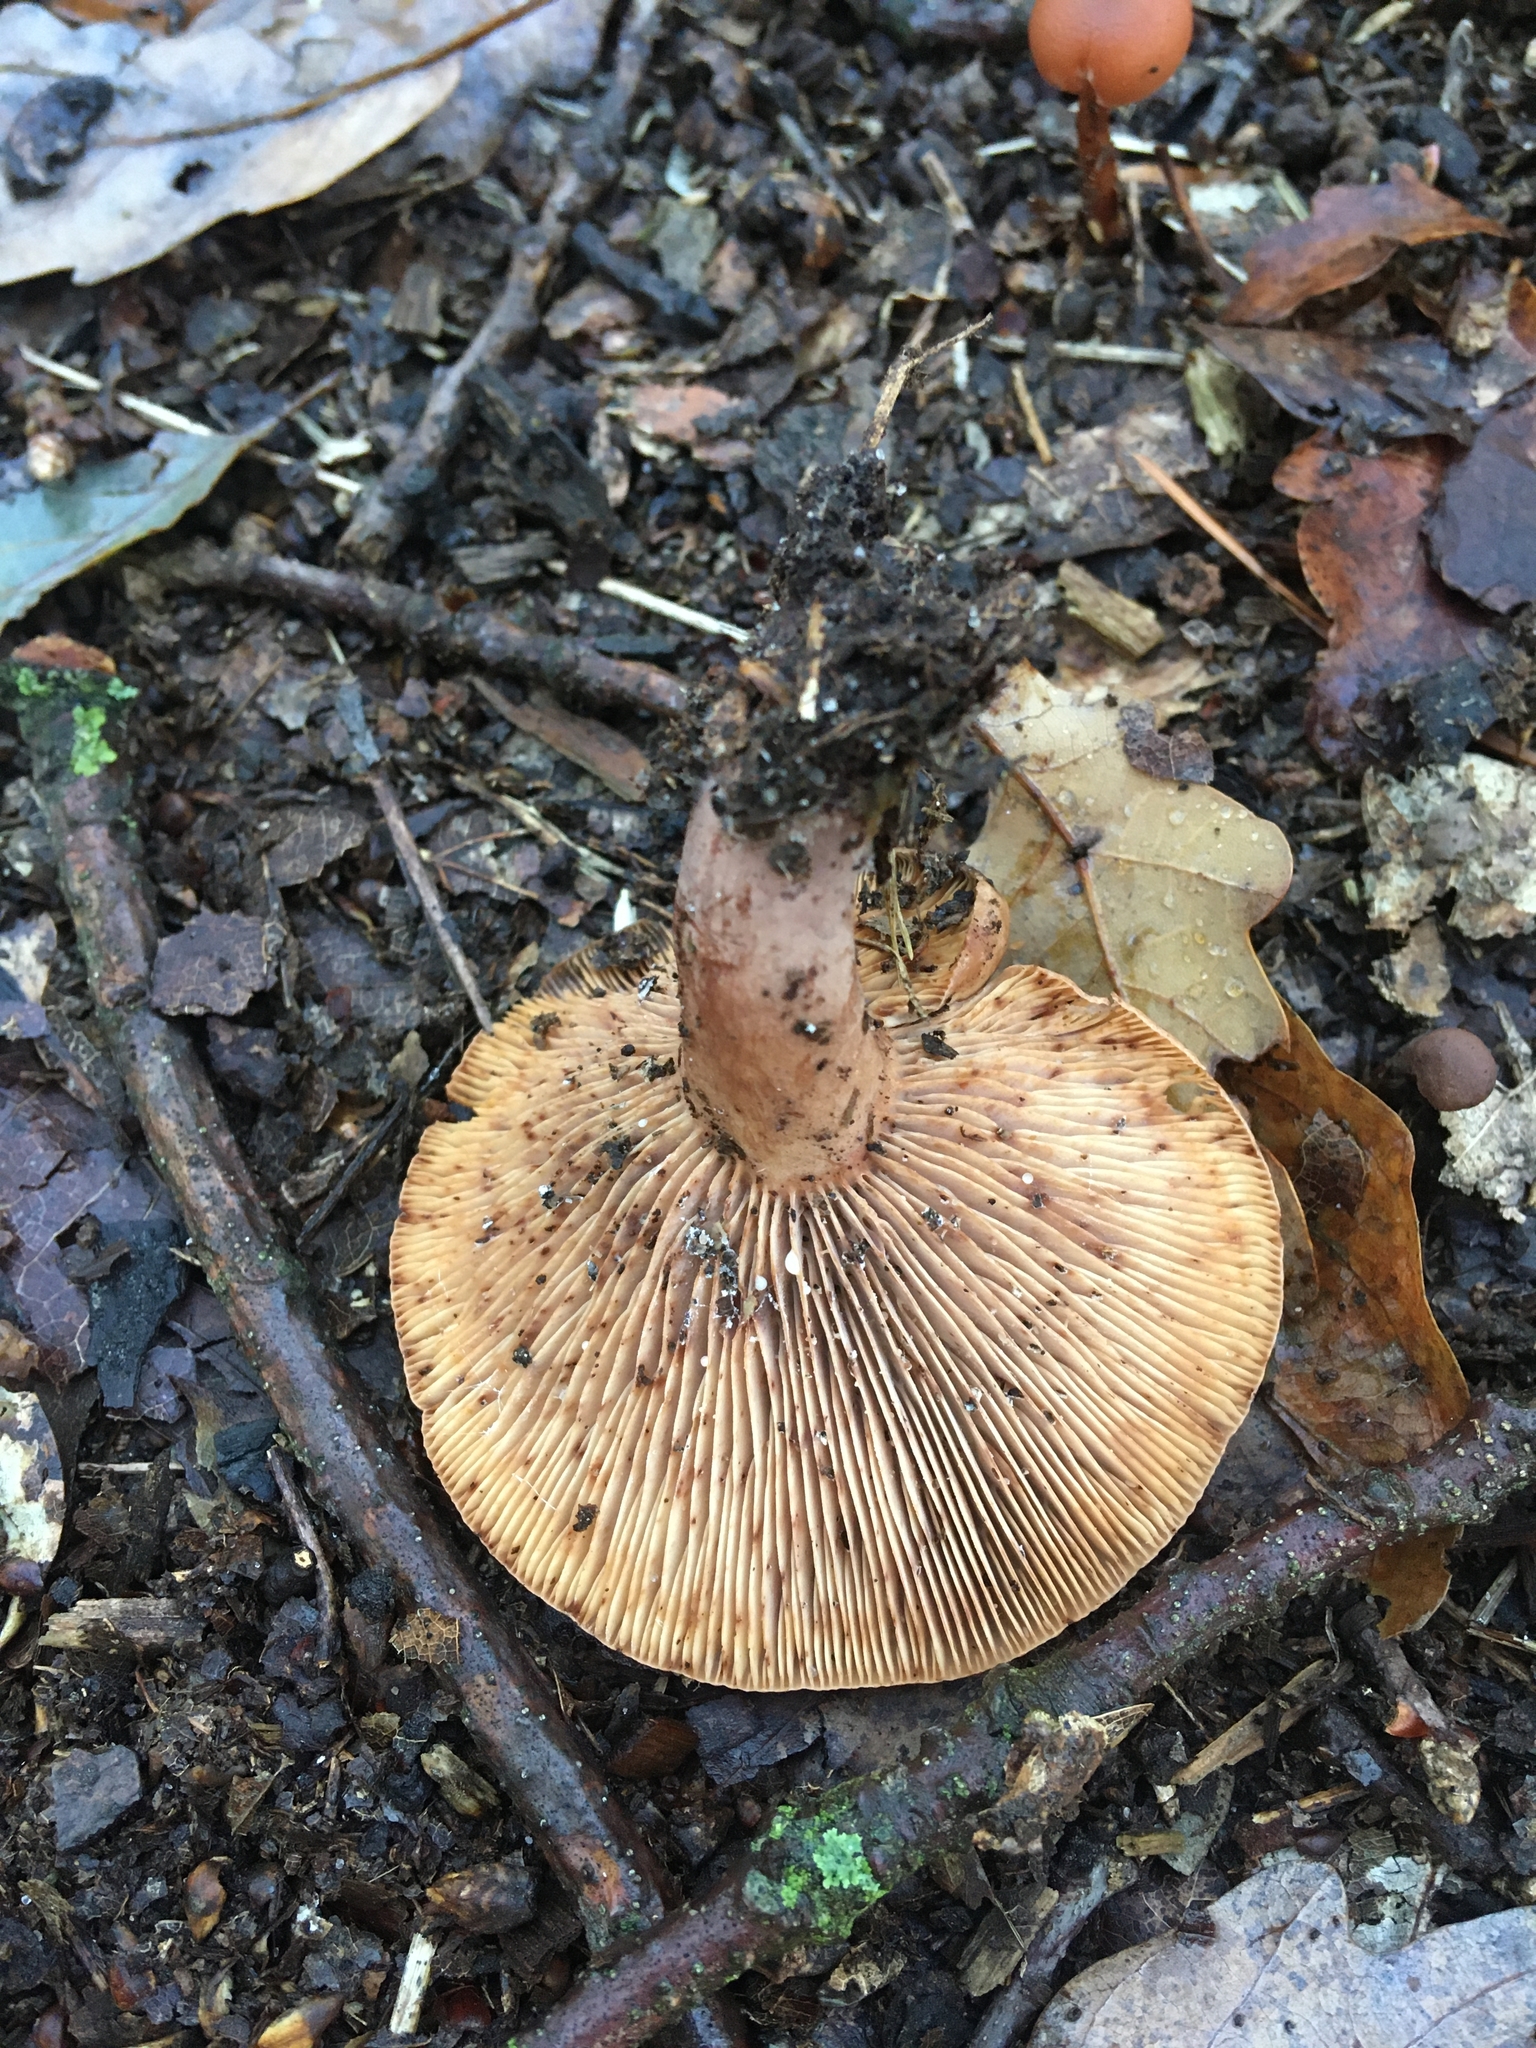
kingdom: Fungi
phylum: Basidiomycota
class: Agaricomycetes
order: Russulales
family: Russulaceae
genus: Lactarius
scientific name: Lactarius quietus
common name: Oak milk-cap
